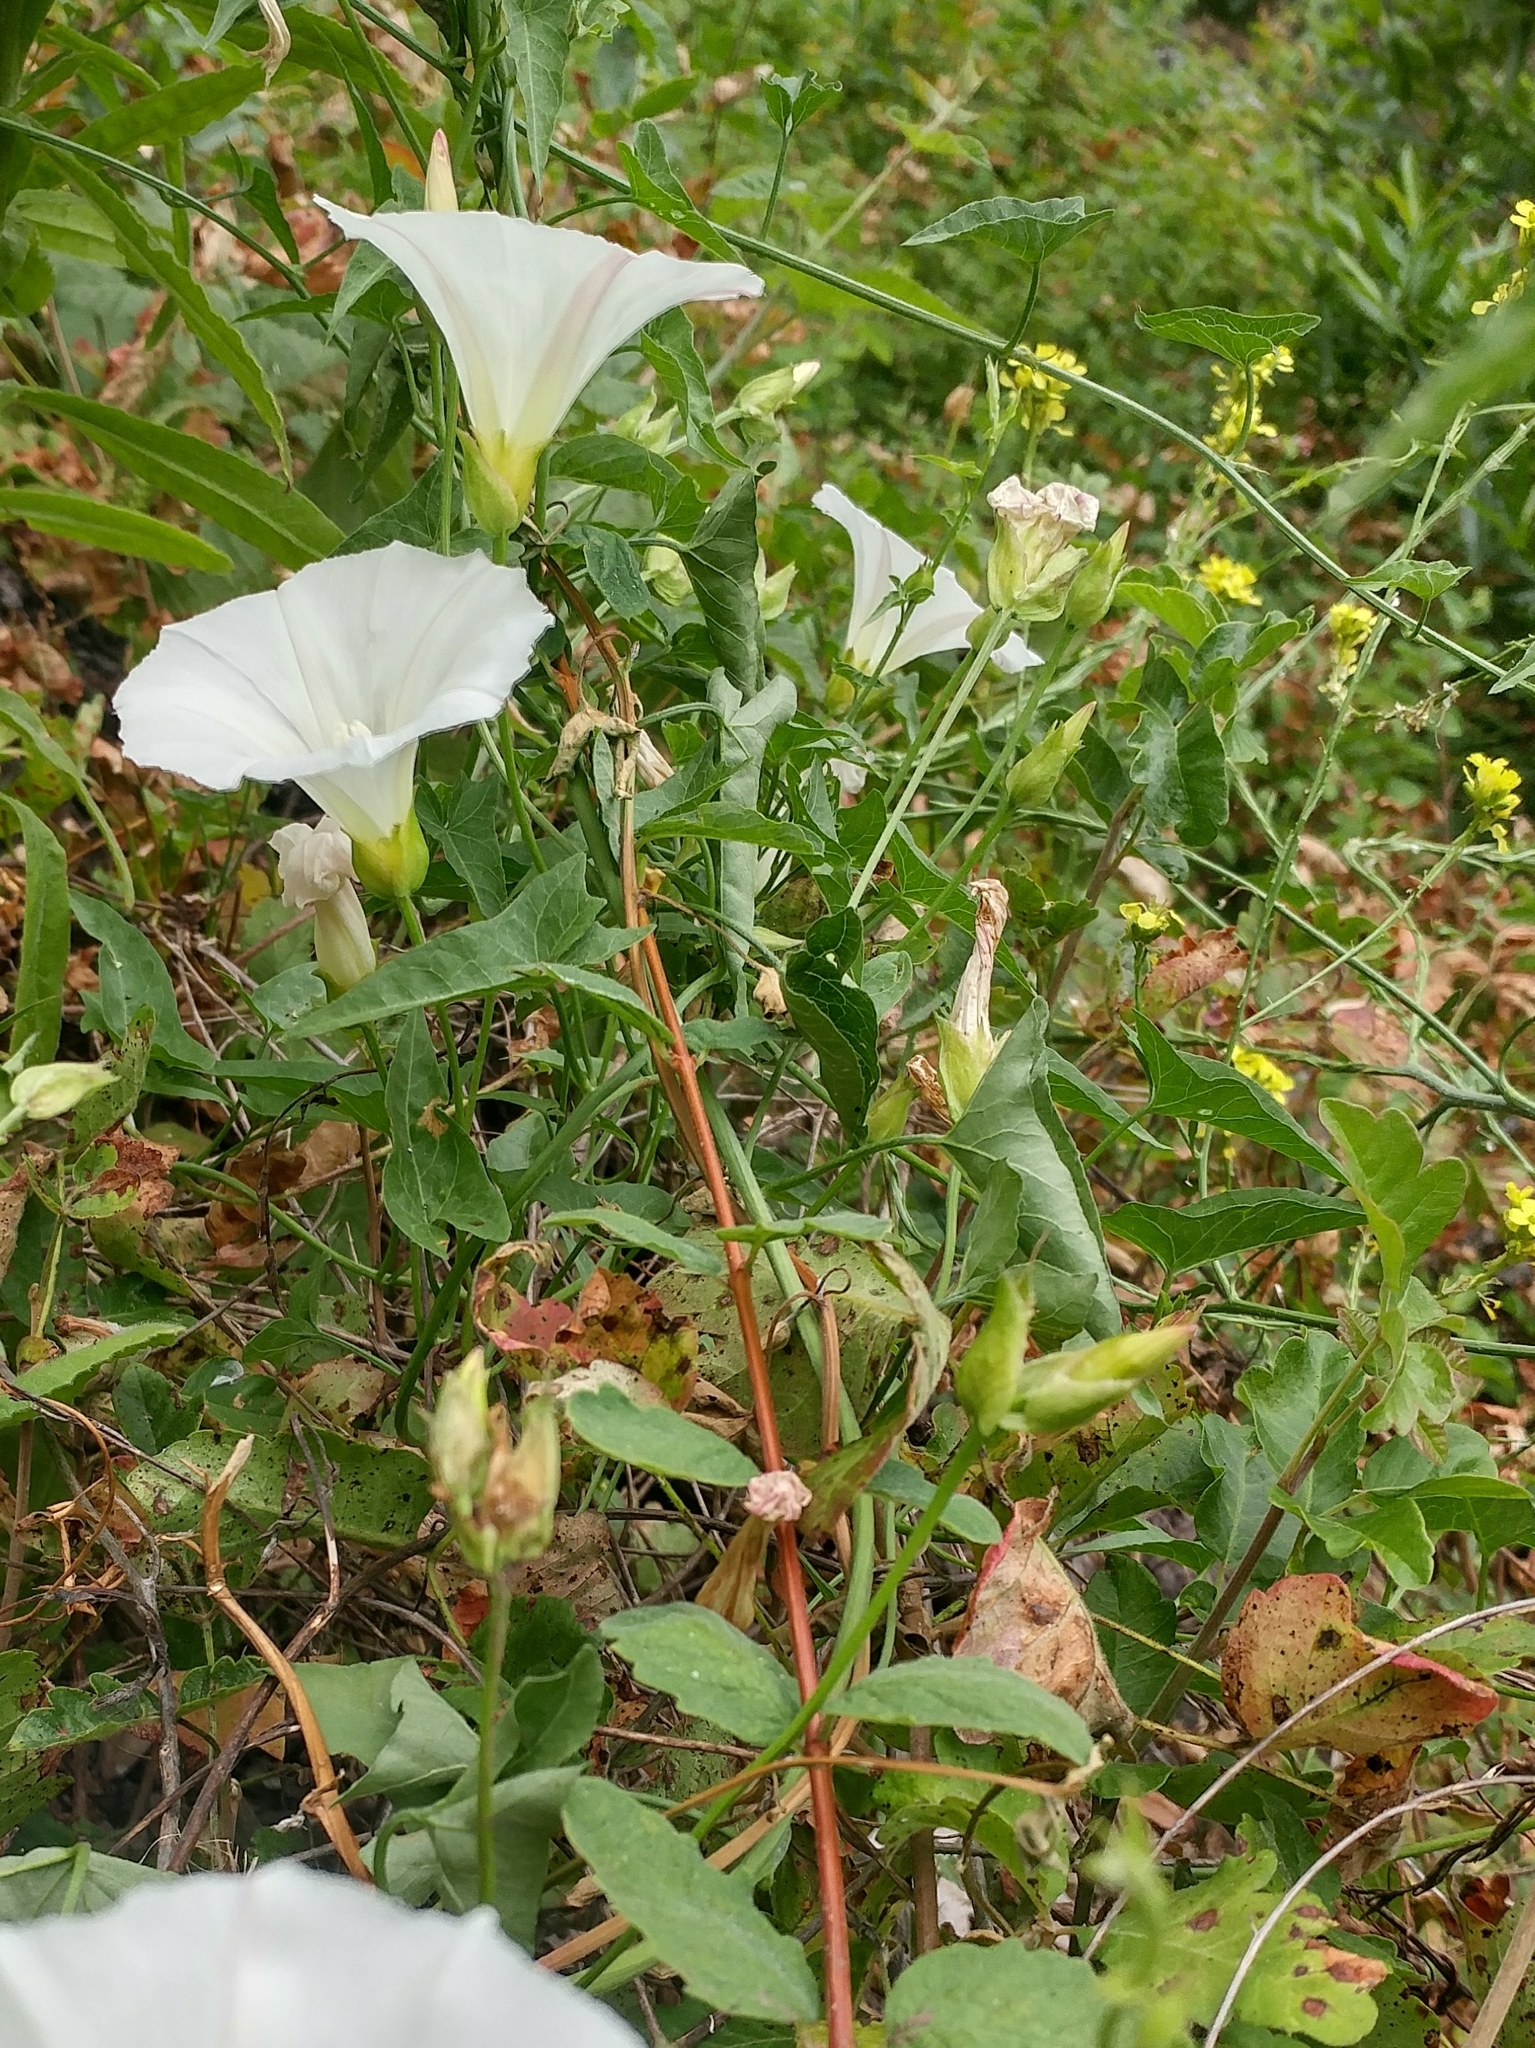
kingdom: Plantae
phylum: Tracheophyta
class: Magnoliopsida
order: Solanales
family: Convolvulaceae
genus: Calystegia
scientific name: Calystegia macrostegia
